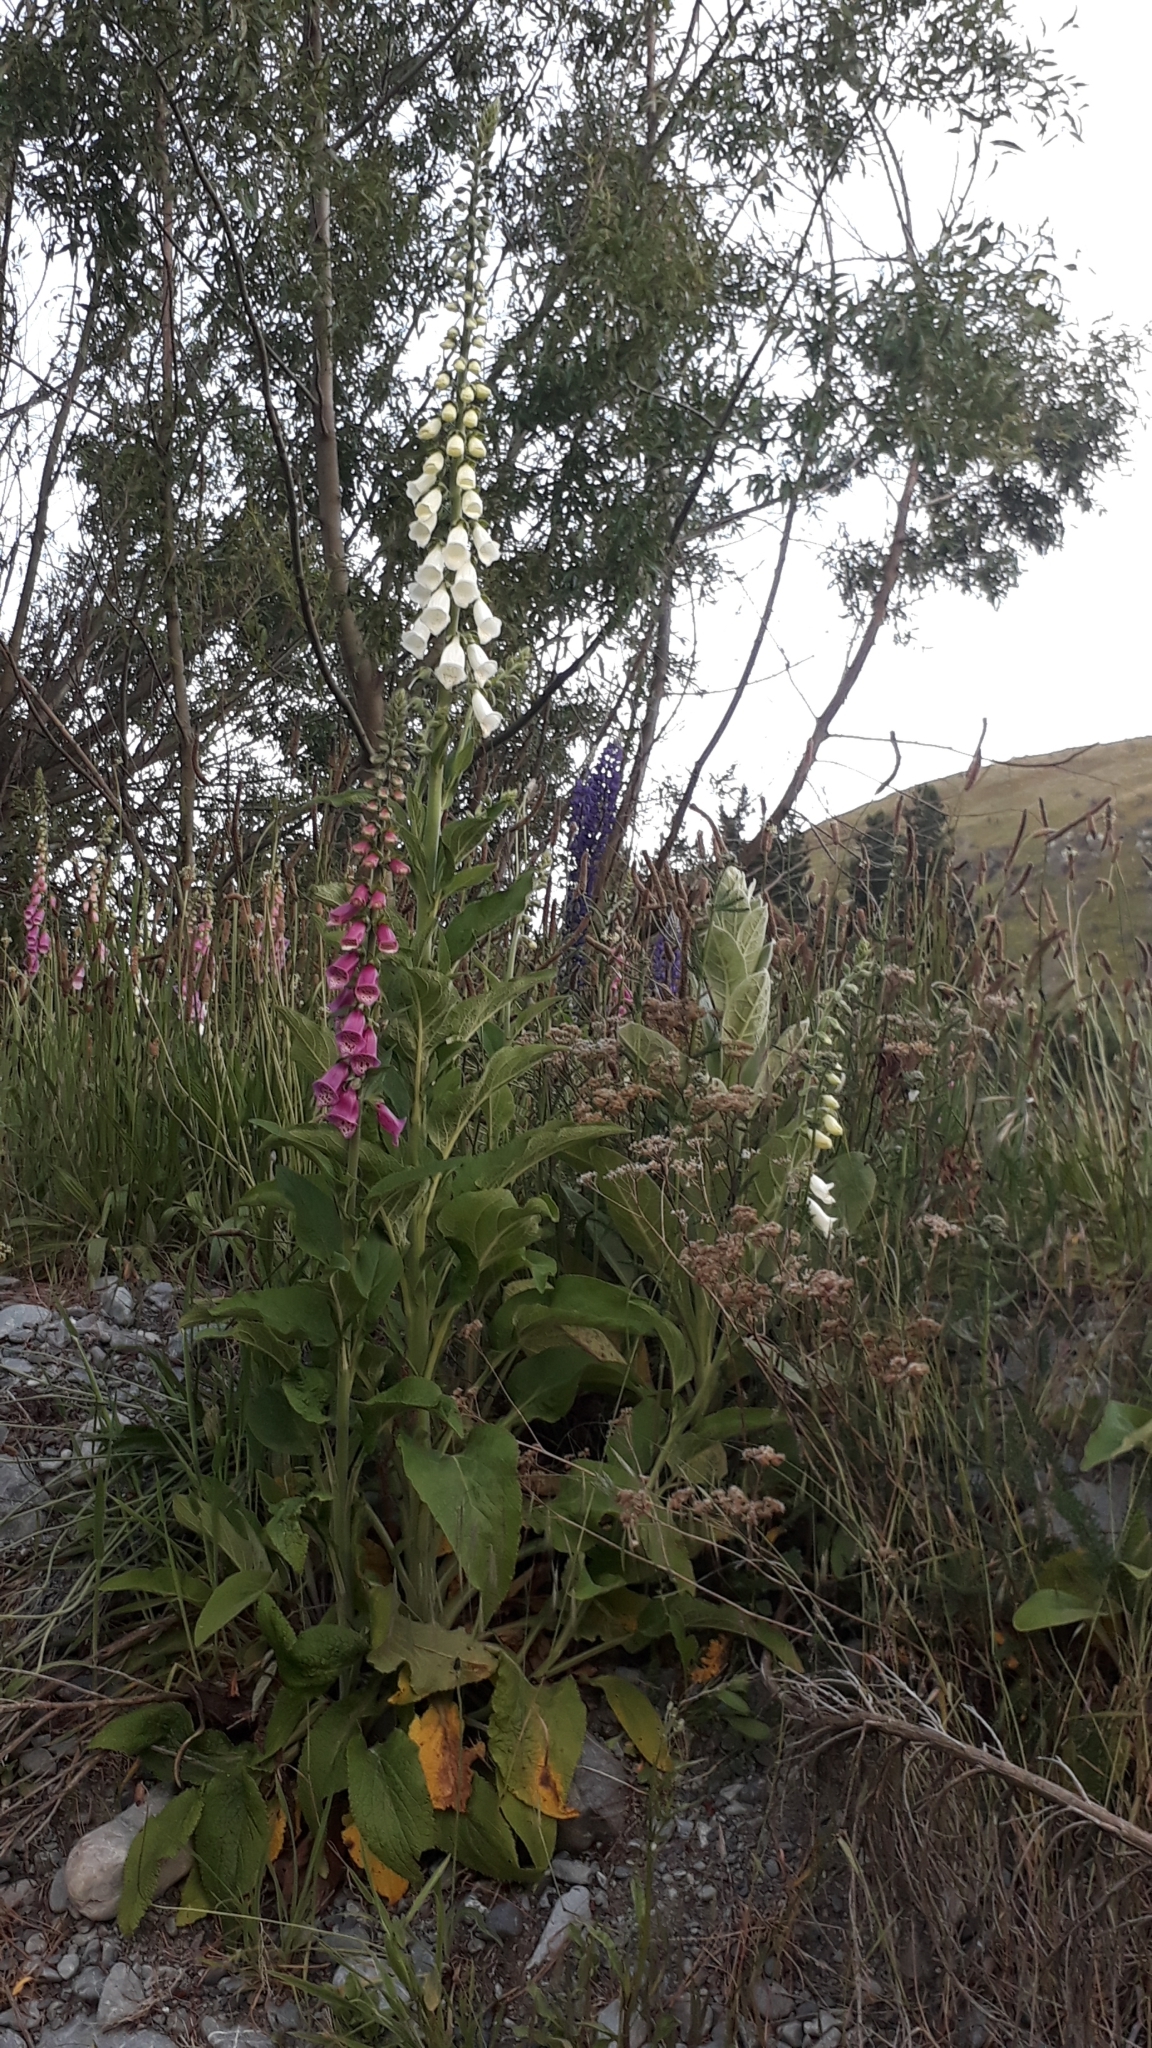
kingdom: Plantae
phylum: Tracheophyta
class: Magnoliopsida
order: Lamiales
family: Plantaginaceae
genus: Digitalis
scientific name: Digitalis purpurea
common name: Foxglove
